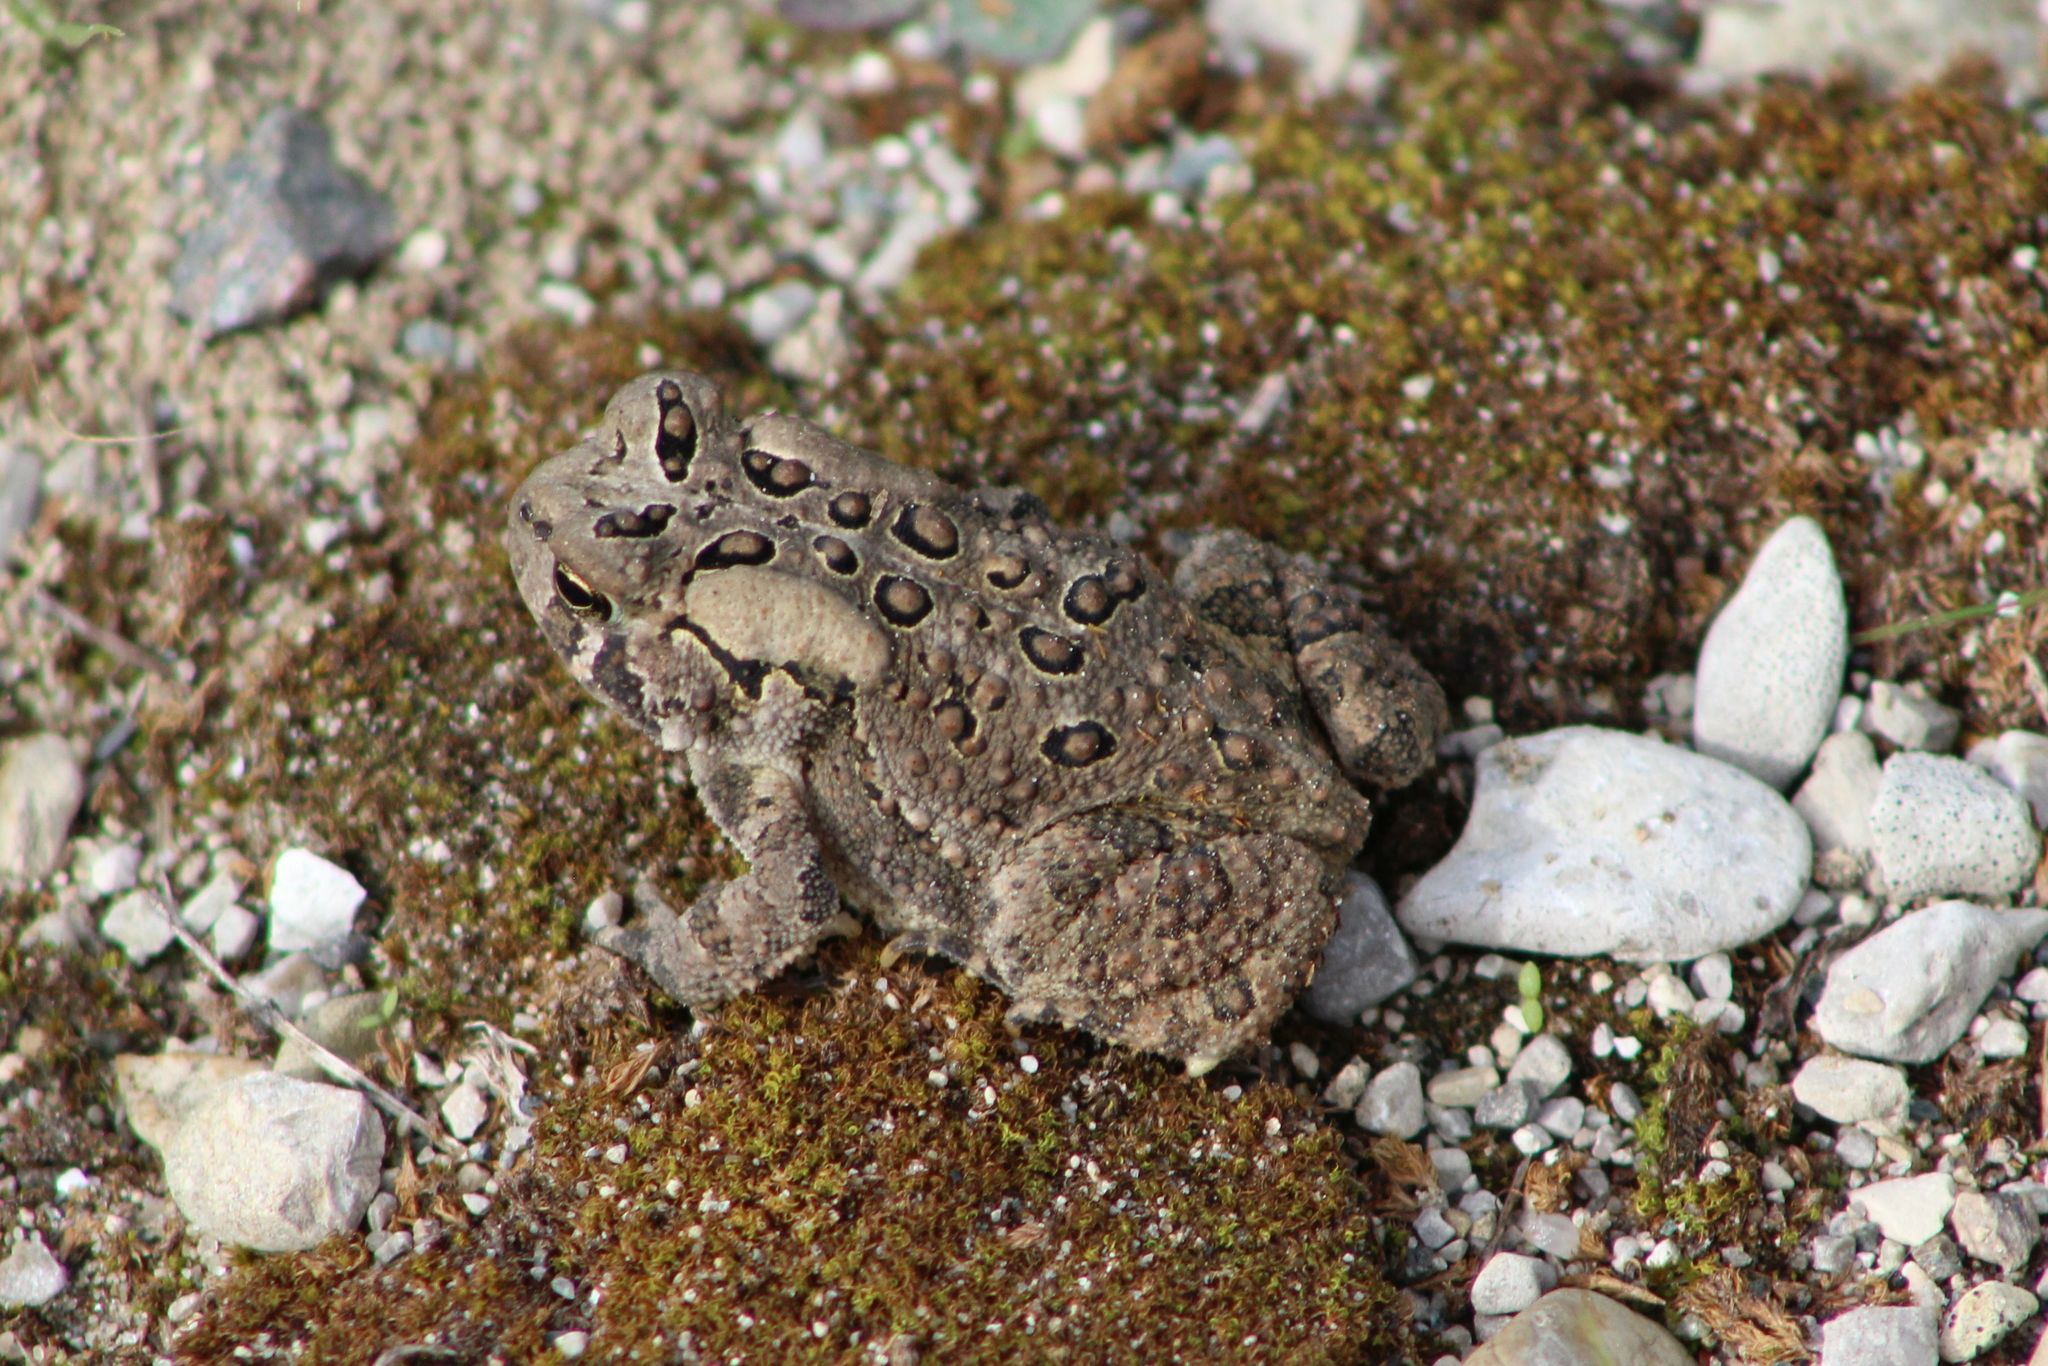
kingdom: Animalia
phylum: Chordata
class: Amphibia
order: Anura
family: Bufonidae
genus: Anaxyrus
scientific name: Anaxyrus americanus
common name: American toad
